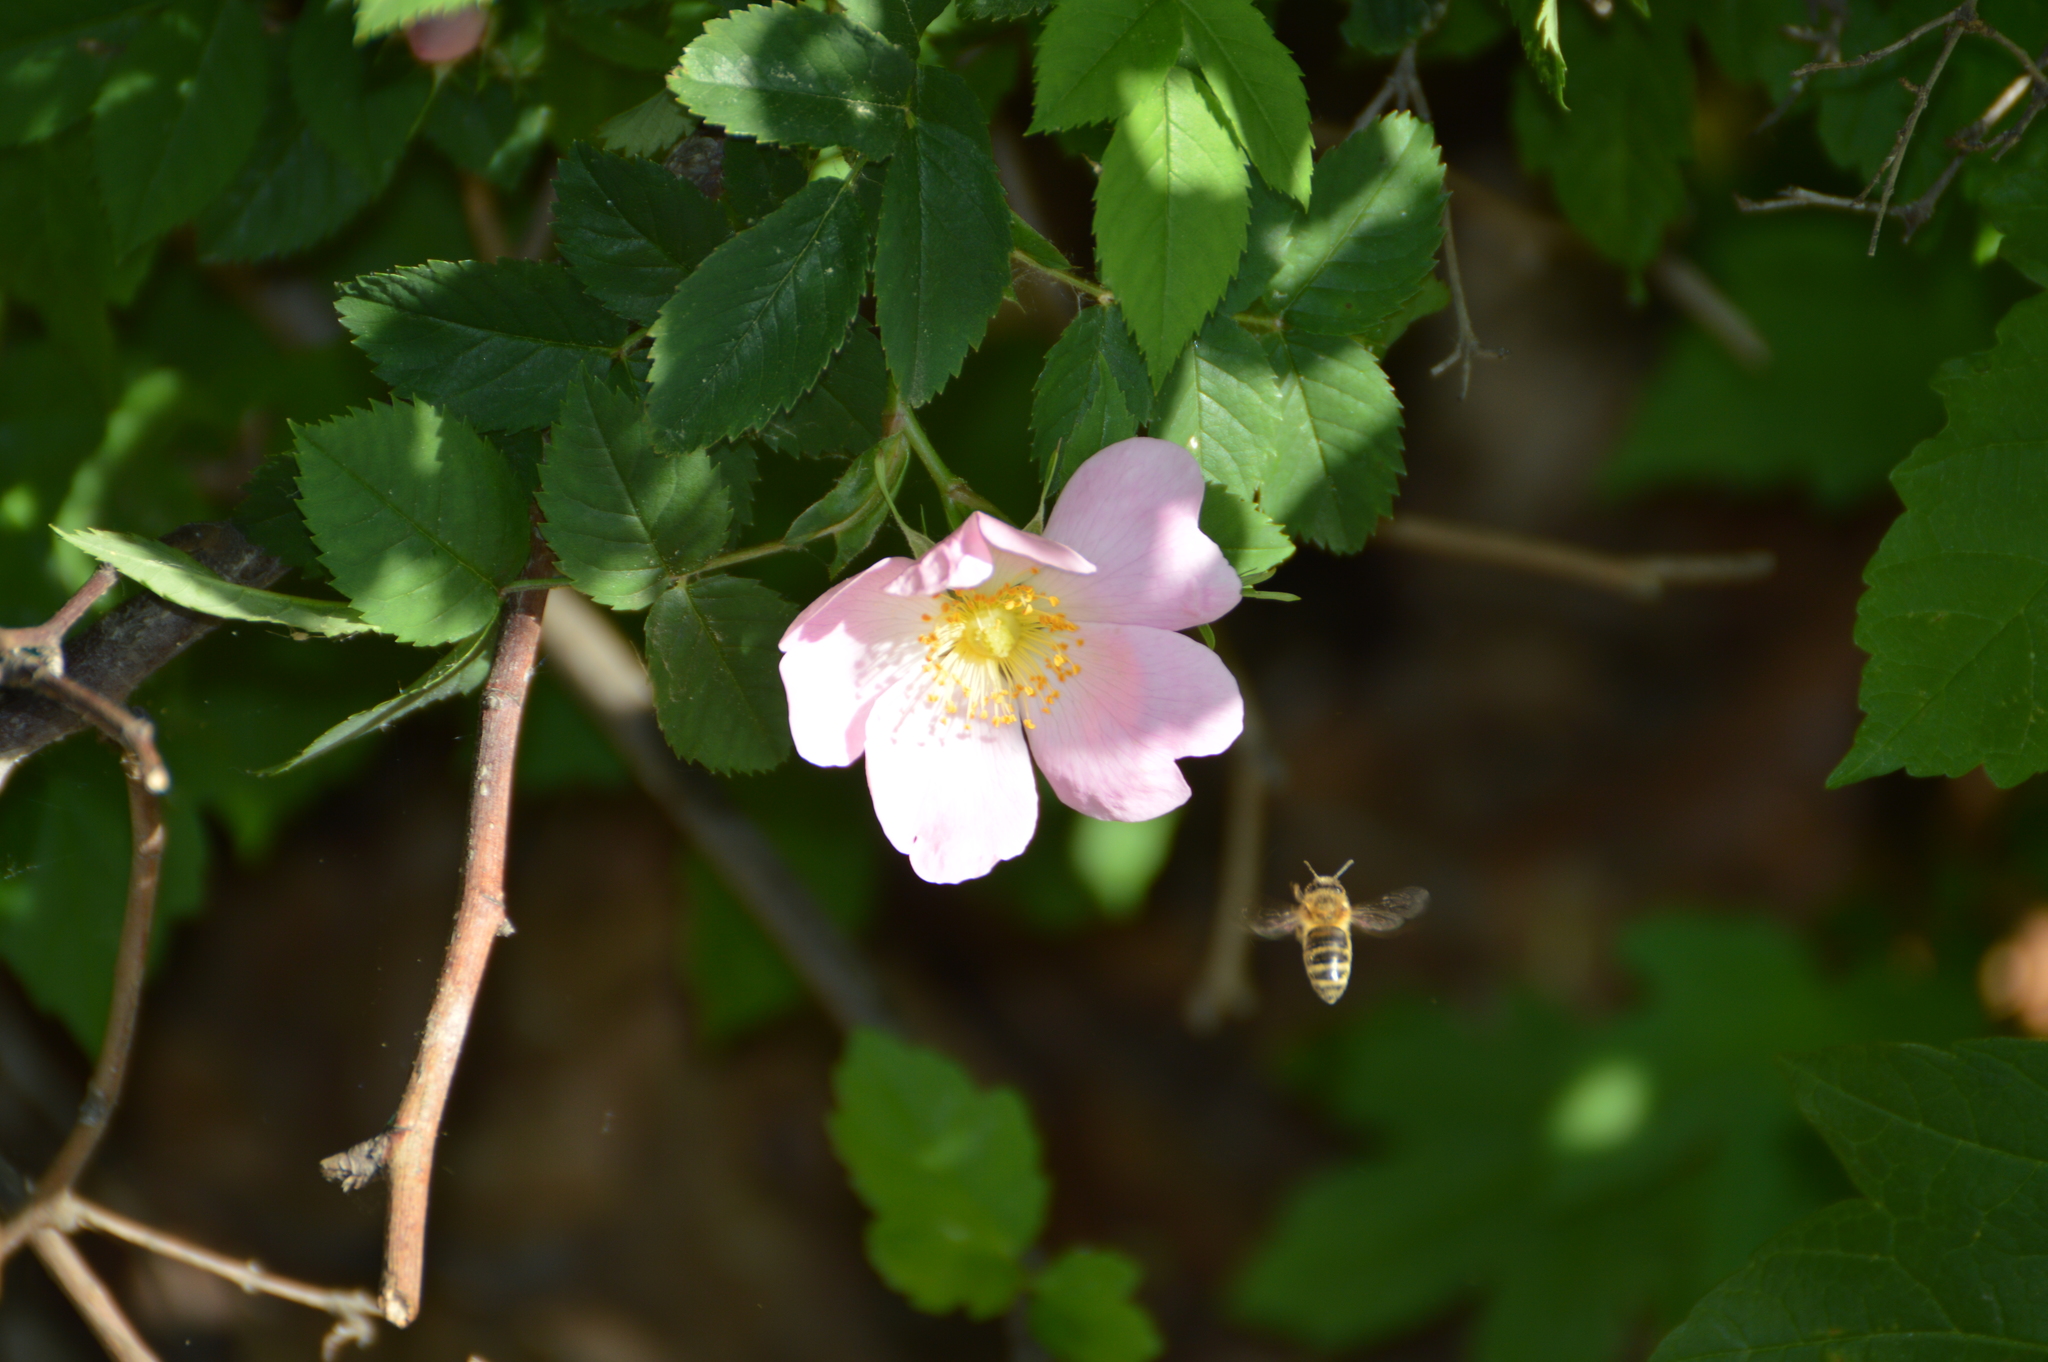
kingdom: Animalia
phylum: Arthropoda
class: Insecta
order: Hymenoptera
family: Apidae
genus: Apis
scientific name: Apis mellifera
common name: Honey bee
